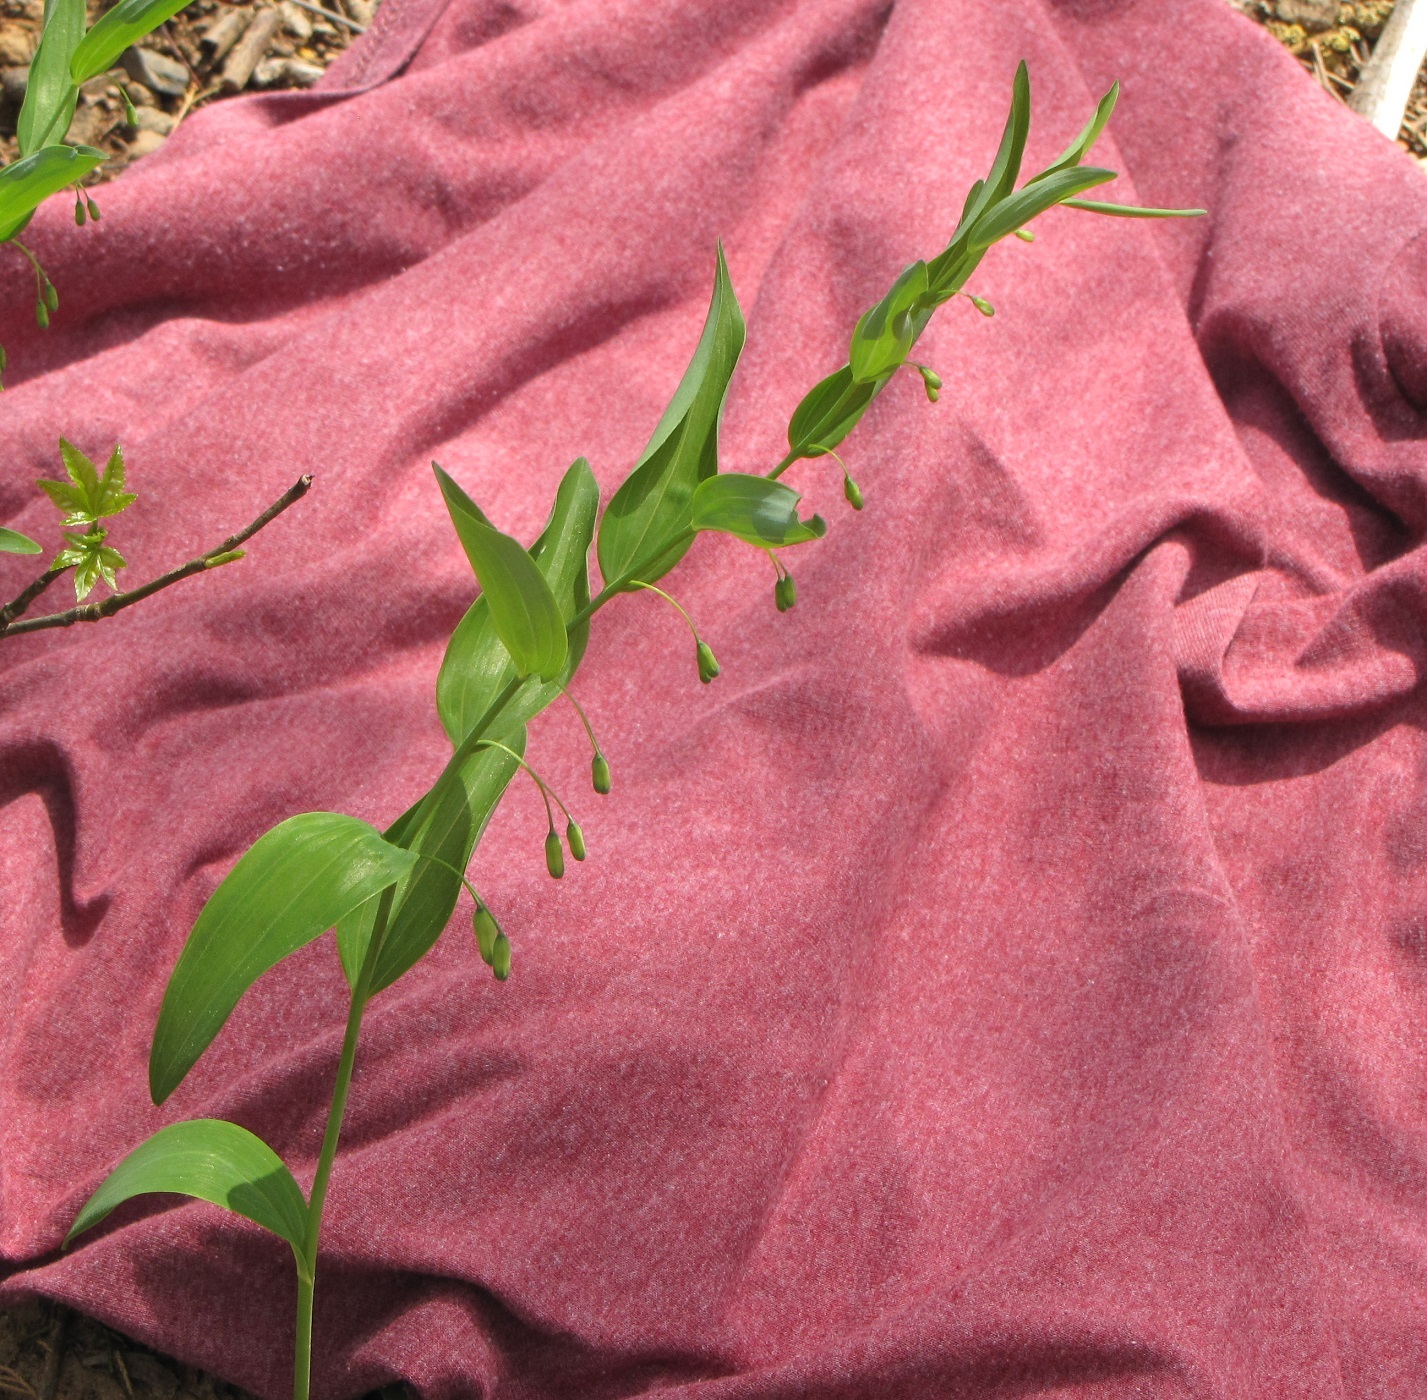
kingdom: Plantae
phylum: Tracheophyta
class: Liliopsida
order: Asparagales
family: Asparagaceae
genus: Polygonatum
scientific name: Polygonatum biflorum
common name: American solomon's-seal
